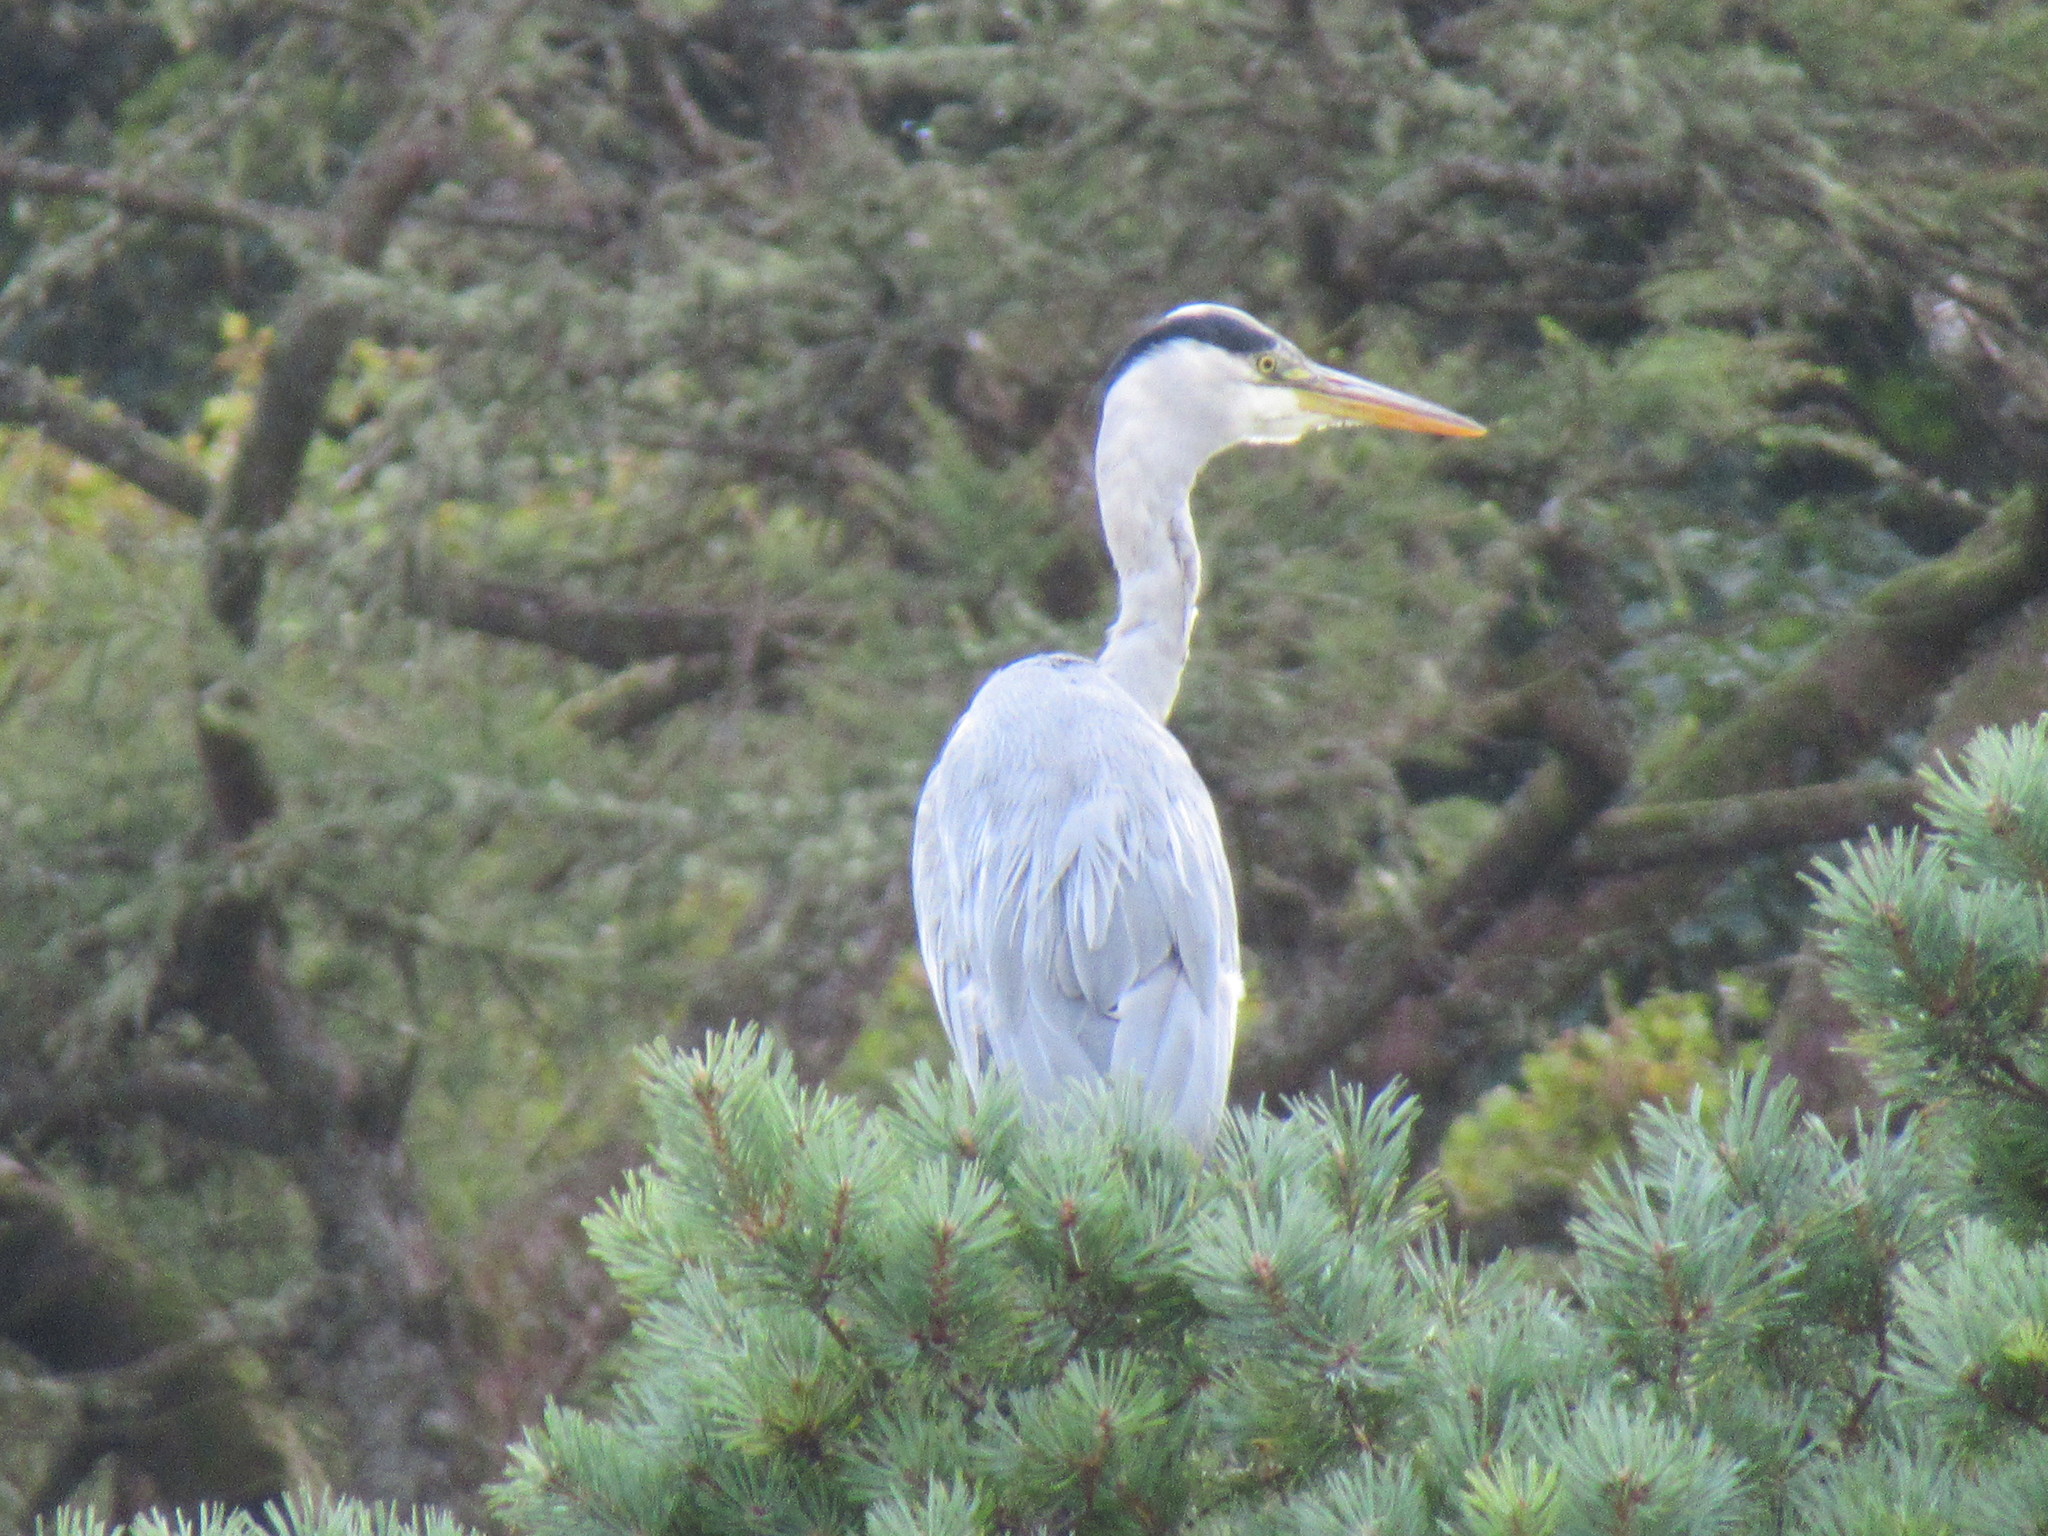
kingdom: Animalia
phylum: Chordata
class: Aves
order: Pelecaniformes
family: Ardeidae
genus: Ardea
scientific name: Ardea cinerea
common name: Grey heron
